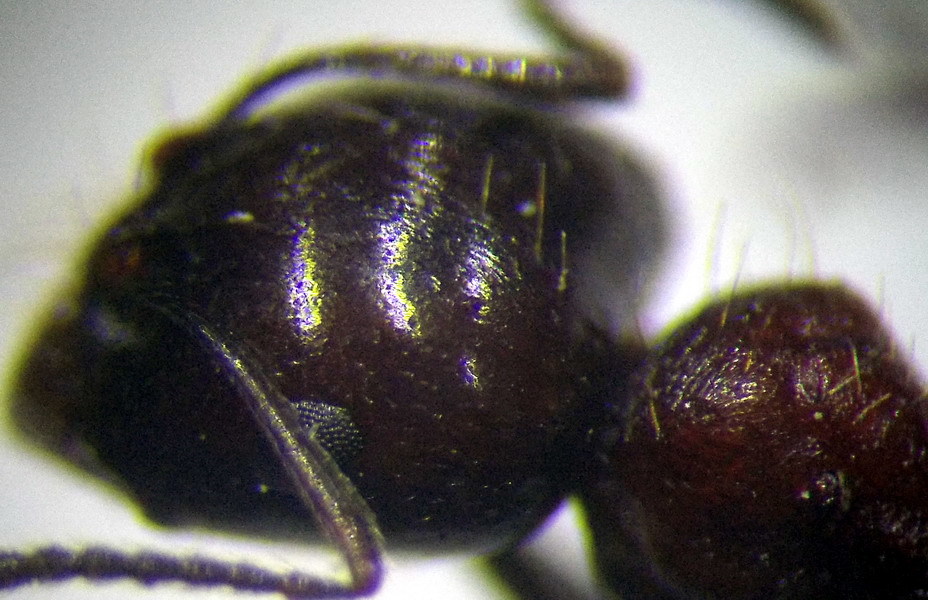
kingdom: Animalia
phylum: Arthropoda
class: Insecta
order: Hymenoptera
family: Formicidae
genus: Messor
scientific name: Messor denticulatus
